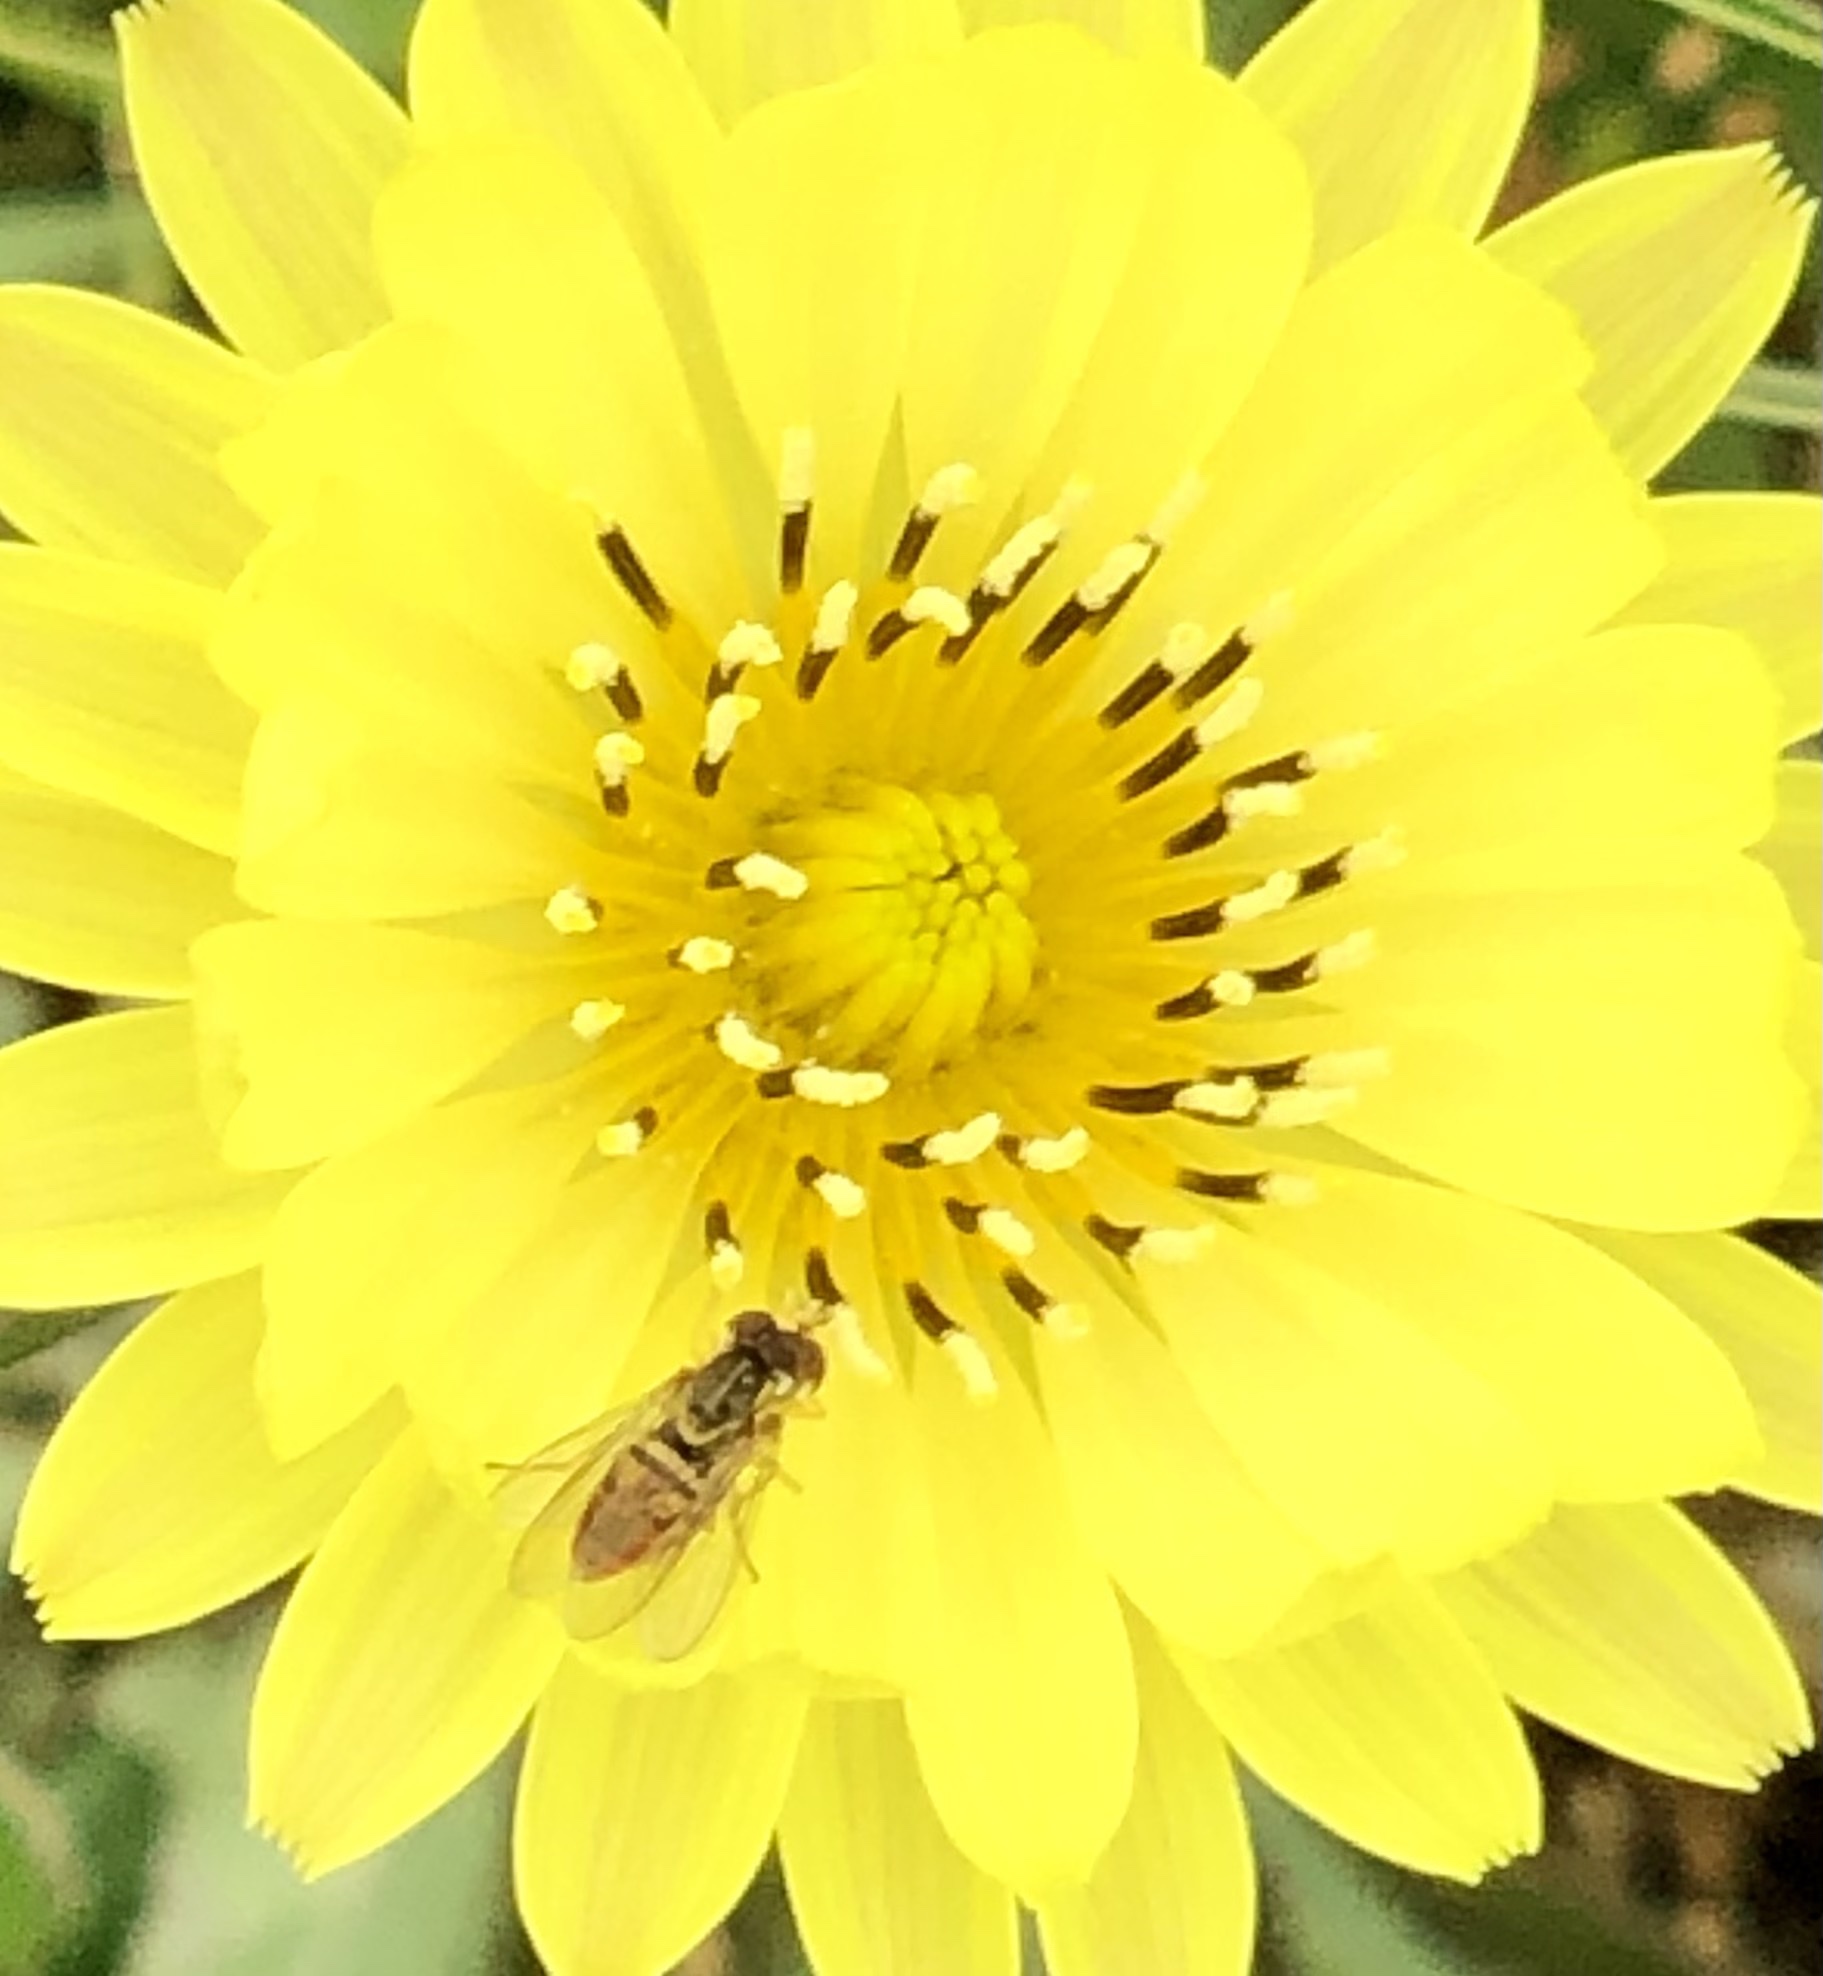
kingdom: Animalia
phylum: Arthropoda
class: Insecta
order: Diptera
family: Syrphidae
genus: Toxomerus
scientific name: Toxomerus marginatus
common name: Syrphid fly
